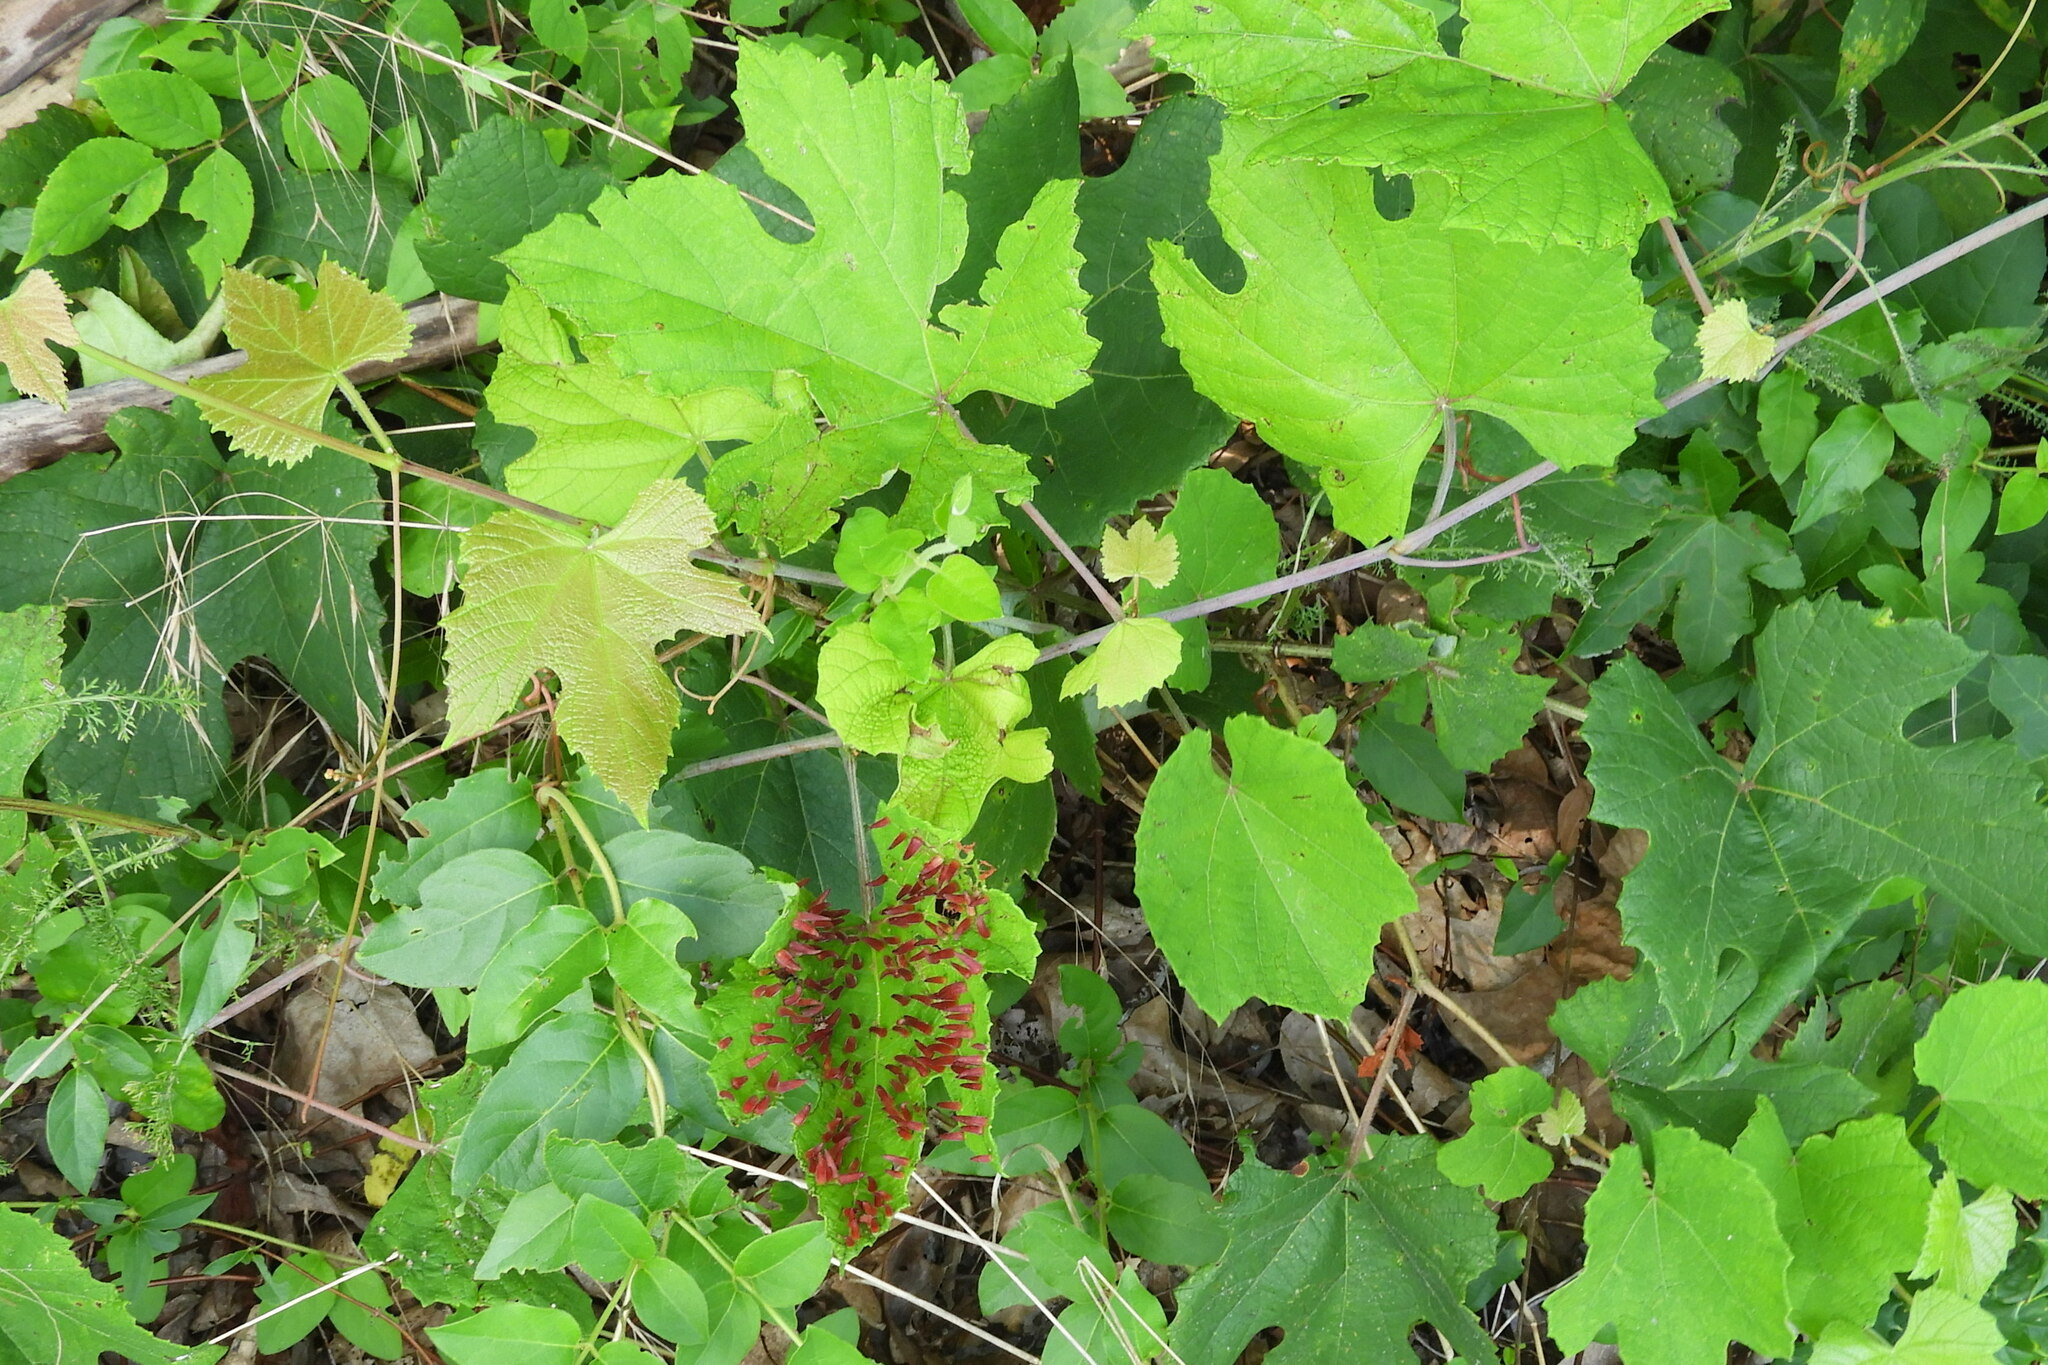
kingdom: Animalia
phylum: Arthropoda
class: Insecta
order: Diptera
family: Cecidomyiidae
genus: Ampelomyia
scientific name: Ampelomyia viticola
